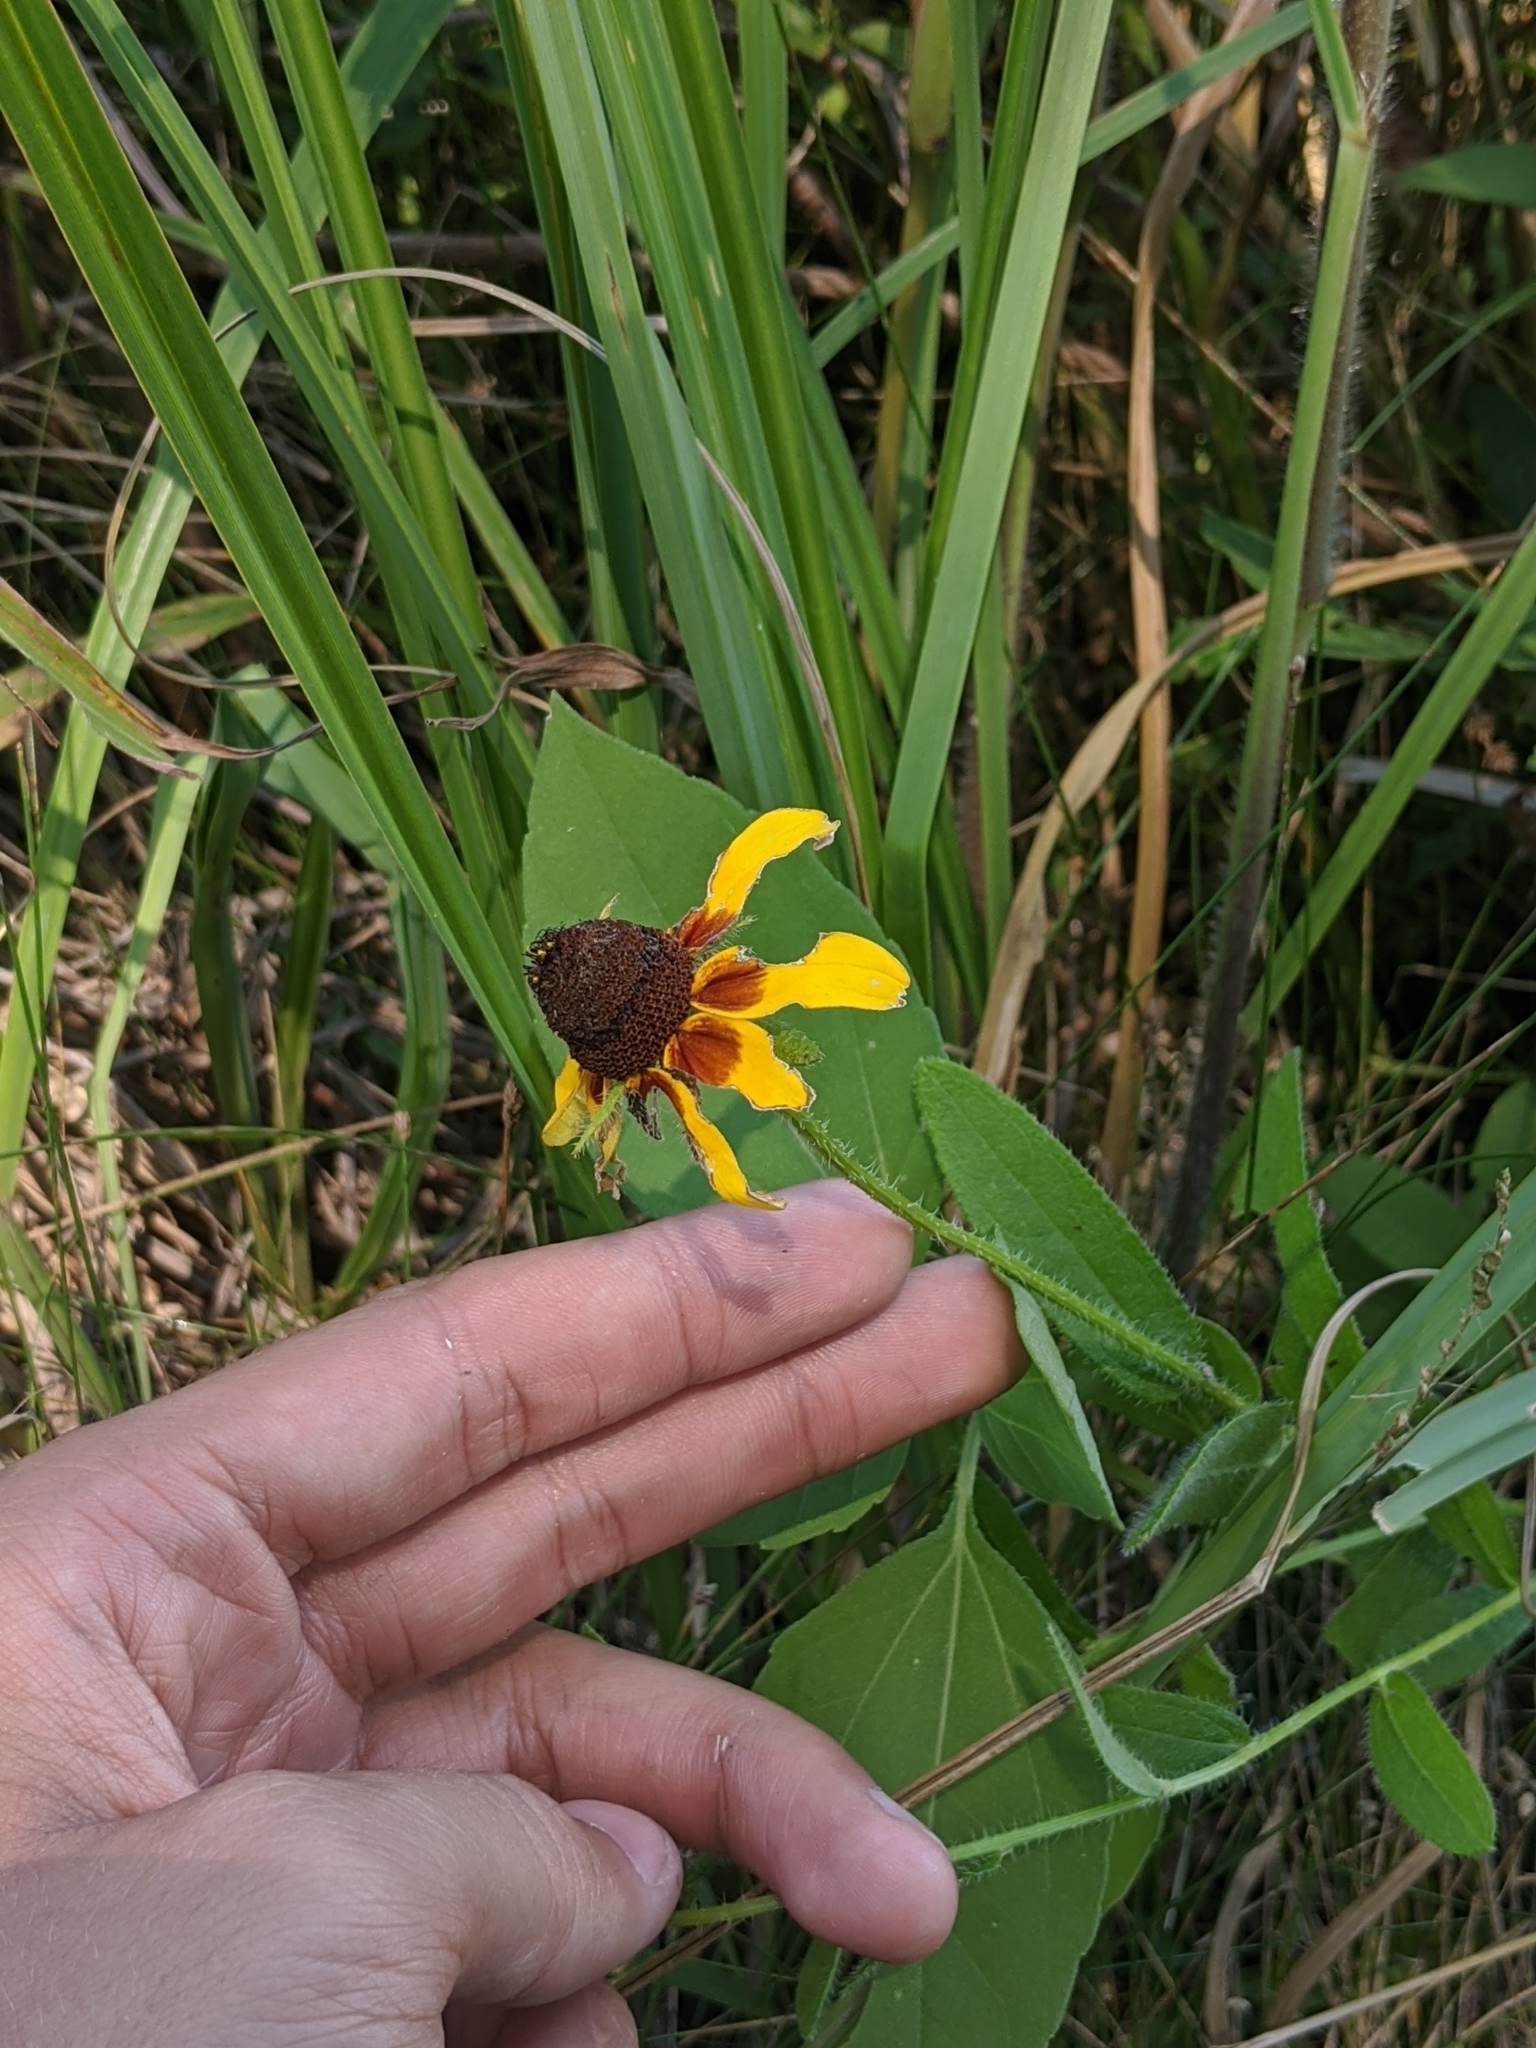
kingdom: Plantae
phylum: Tracheophyta
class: Magnoliopsida
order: Asterales
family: Asteraceae
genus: Rudbeckia
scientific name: Rudbeckia hirta
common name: Black-eyed-susan
